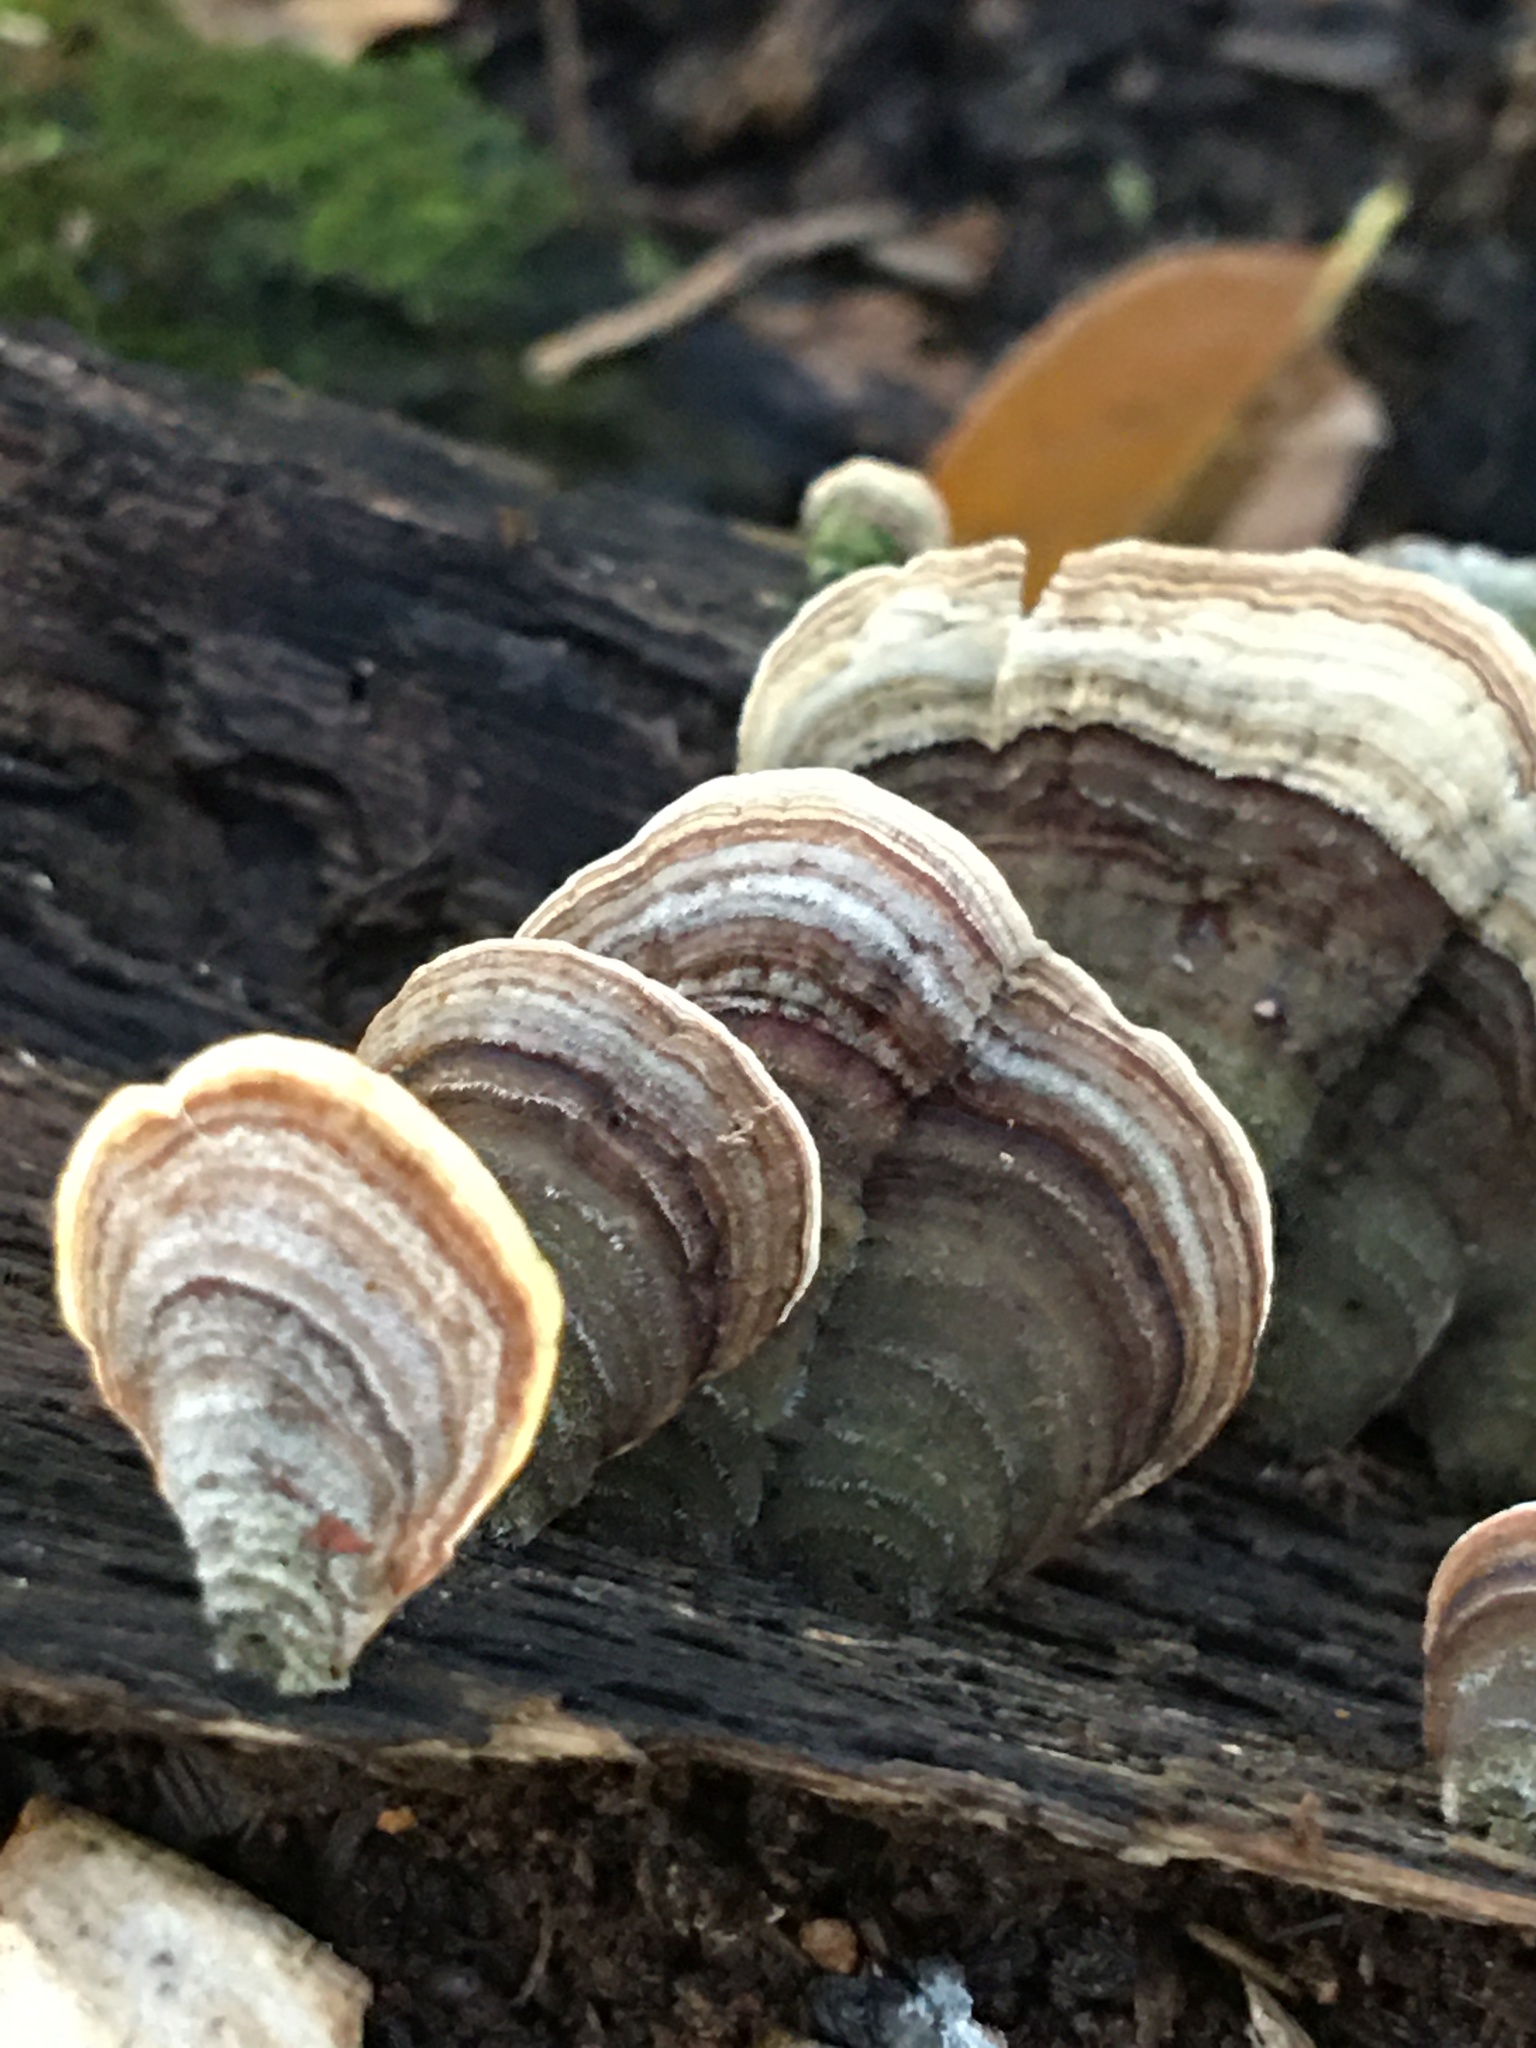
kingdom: Fungi
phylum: Basidiomycota
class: Agaricomycetes
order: Russulales
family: Stereaceae
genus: Stereum
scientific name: Stereum ostrea
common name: False turkeytail
